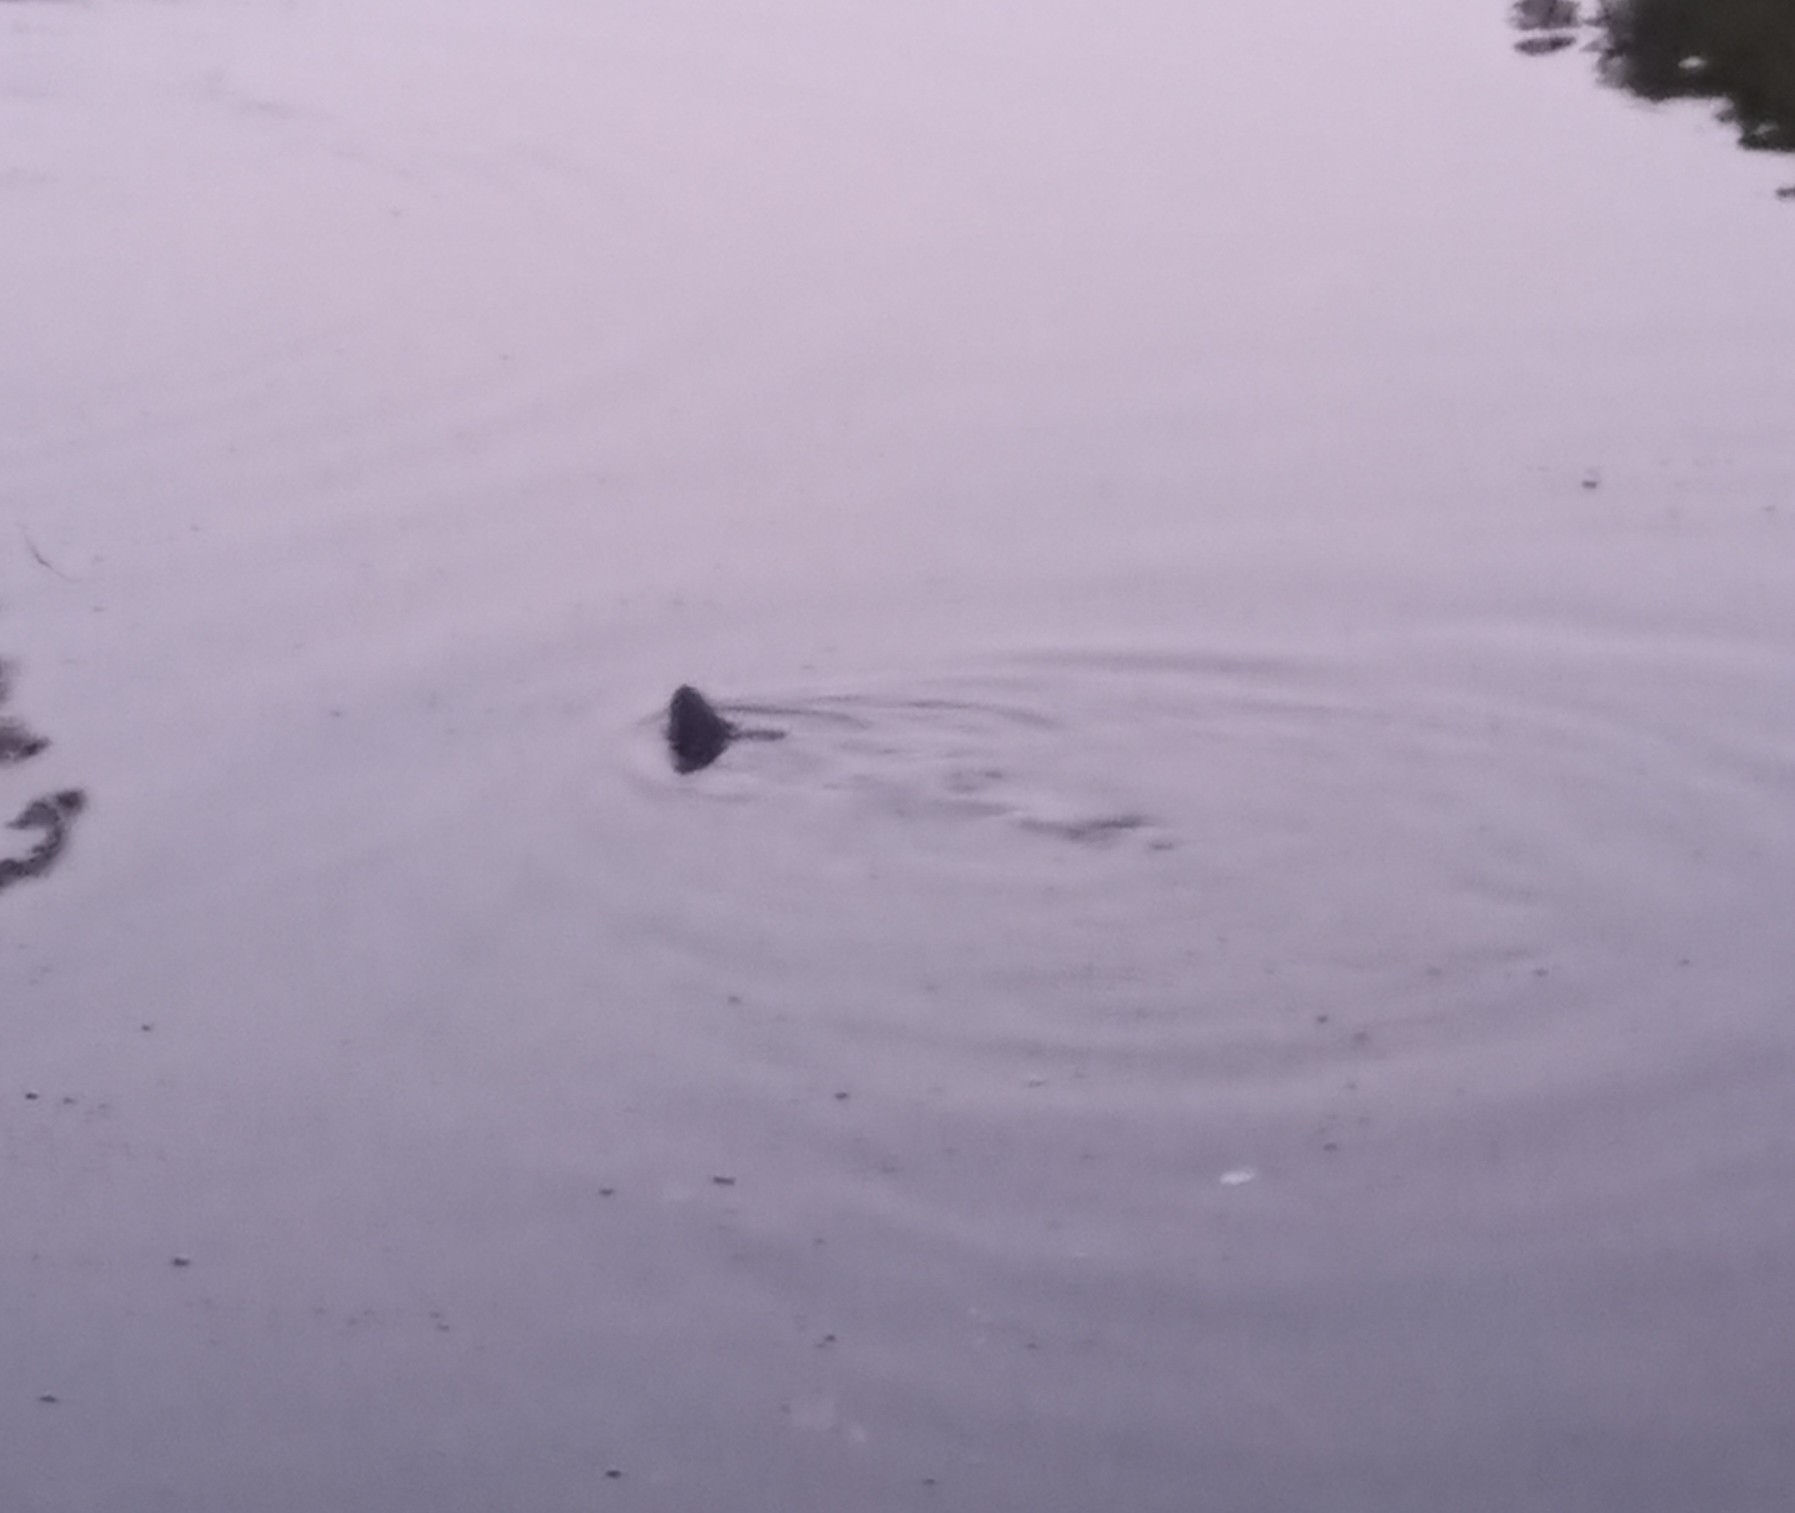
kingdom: Animalia
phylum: Chordata
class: Mammalia
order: Carnivora
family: Mustelidae
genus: Lontra
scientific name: Lontra canadensis
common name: North american river otter
